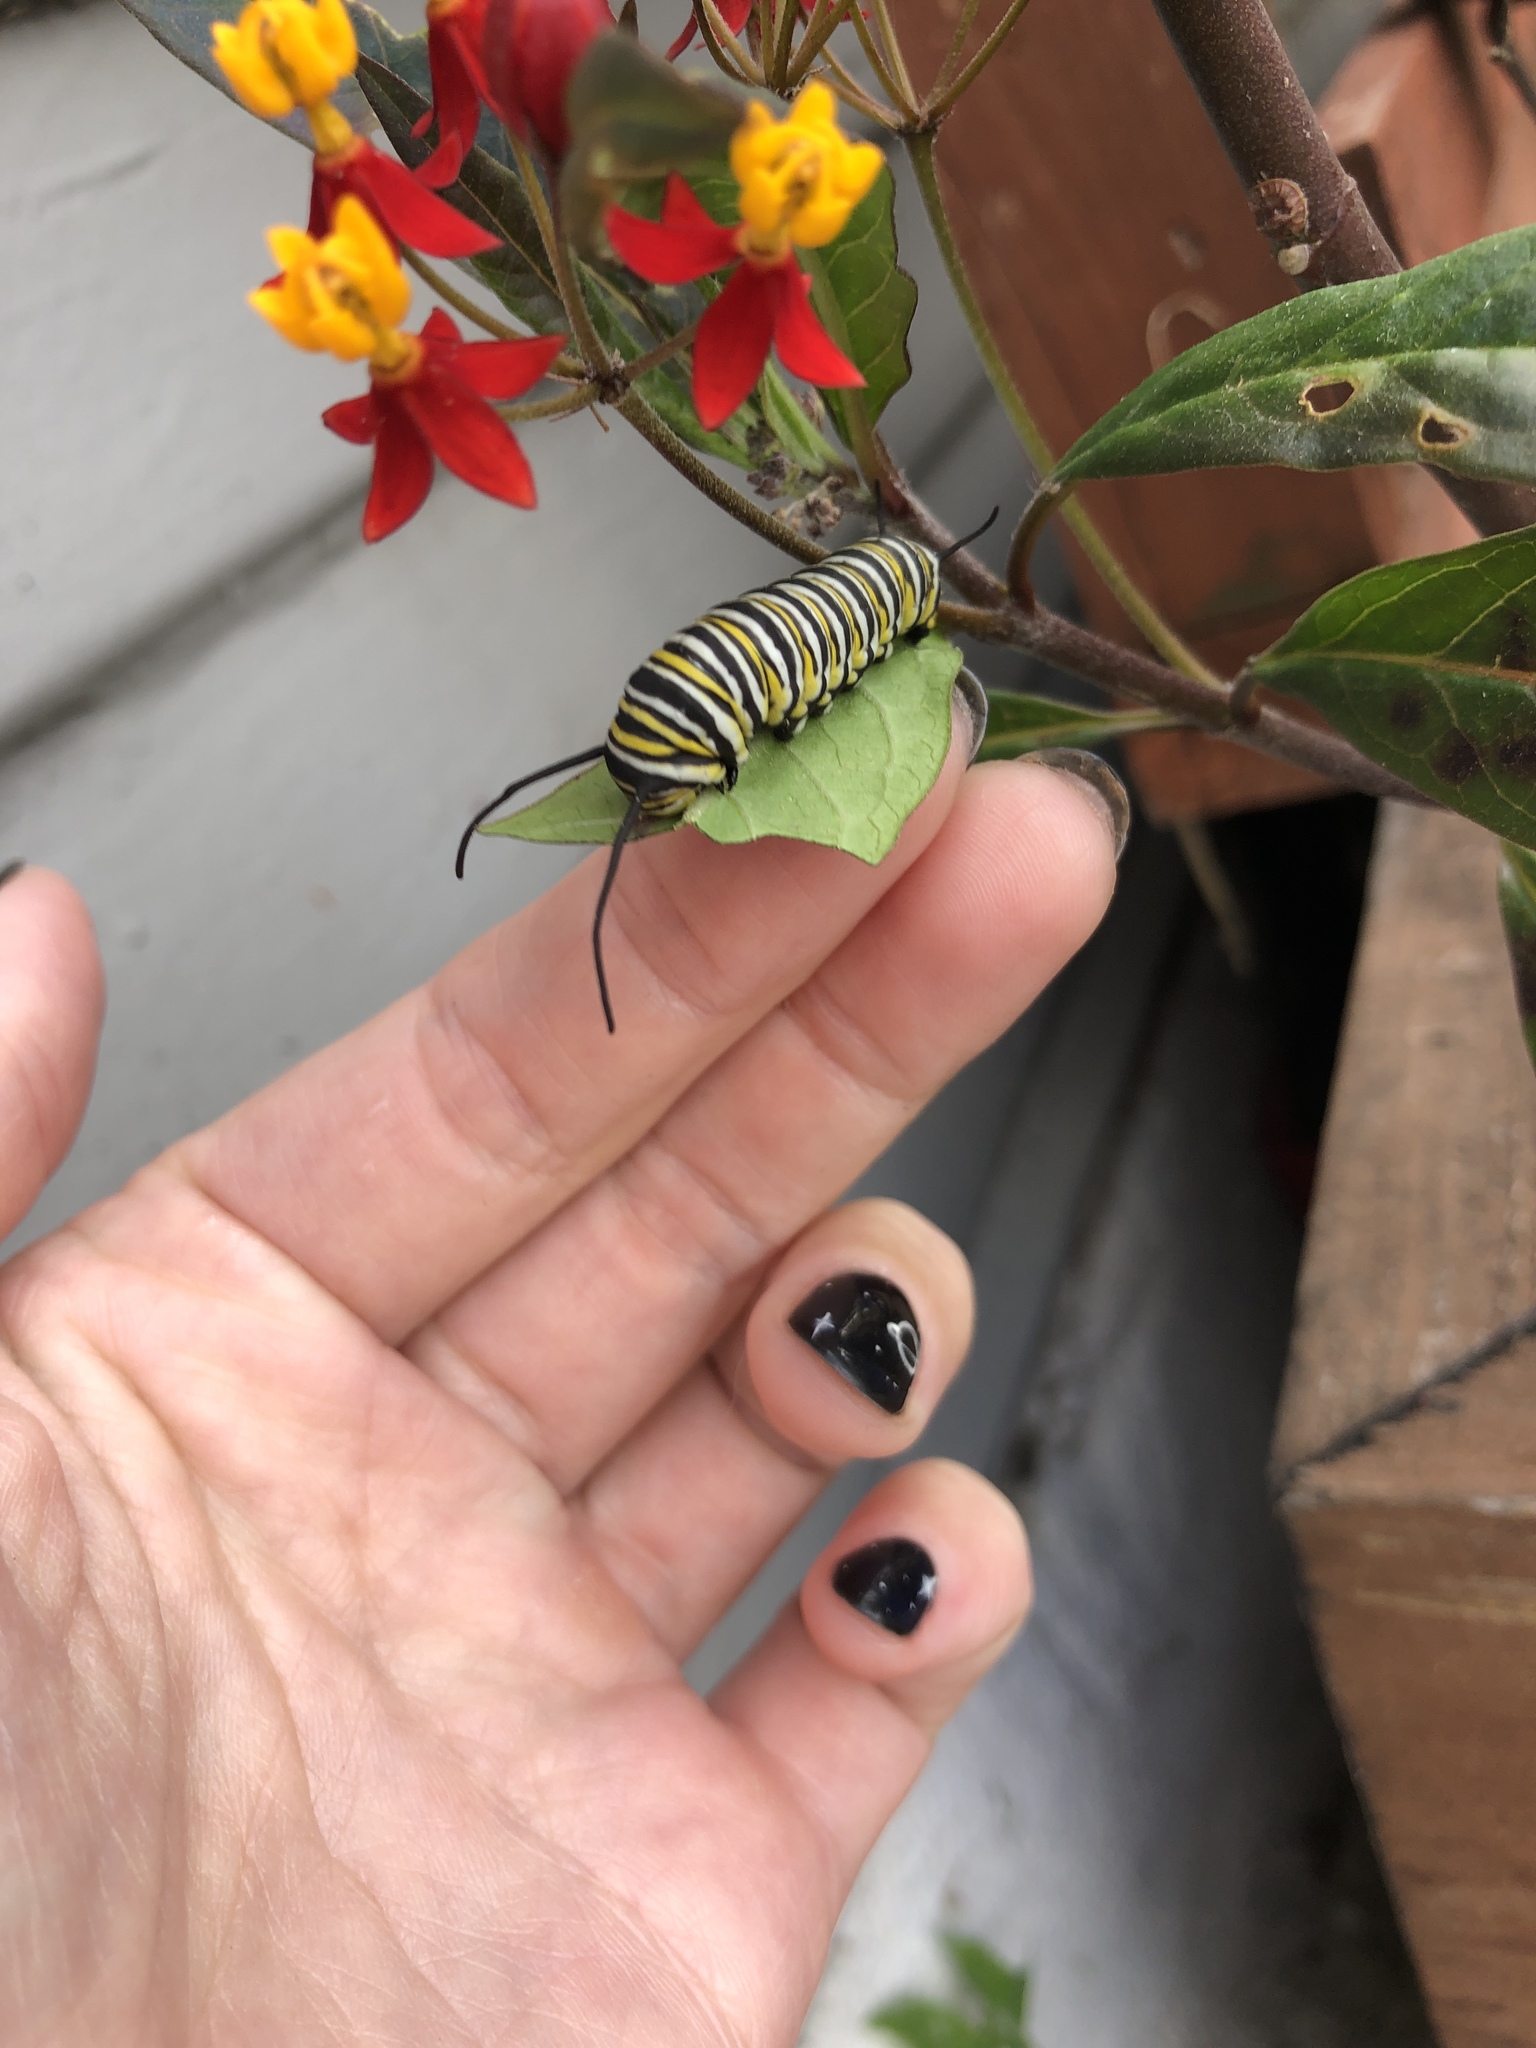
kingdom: Animalia
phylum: Arthropoda
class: Insecta
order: Lepidoptera
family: Nymphalidae
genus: Danaus
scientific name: Danaus plexippus
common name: Monarch
